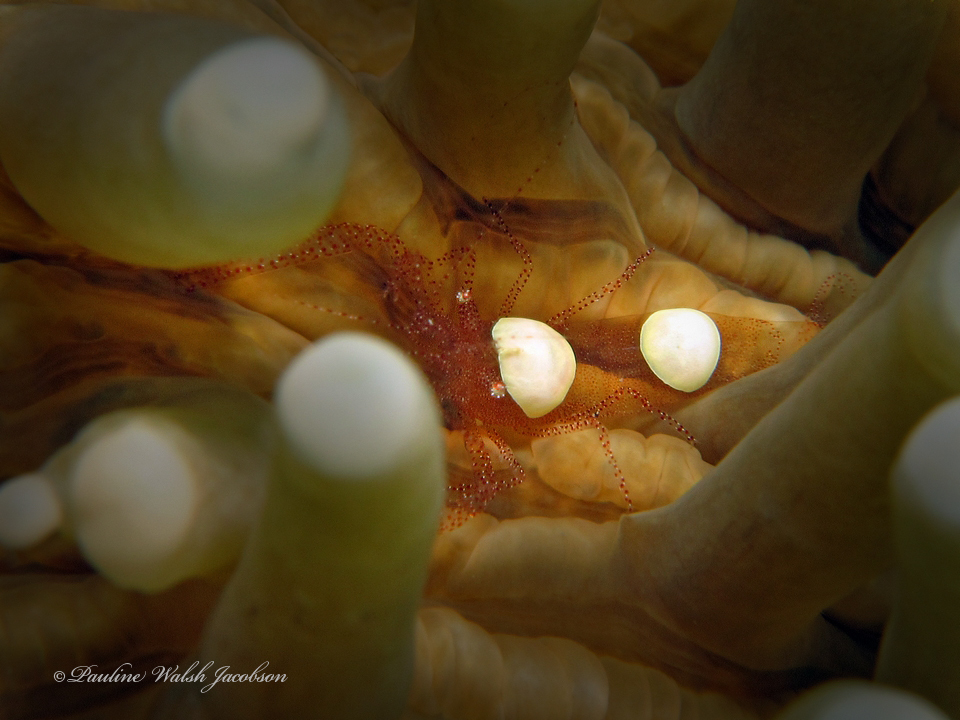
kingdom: Animalia
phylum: Arthropoda
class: Malacostraca
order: Decapoda
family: Palaemonidae
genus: Hamopontonia
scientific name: Hamopontonia fungicola
